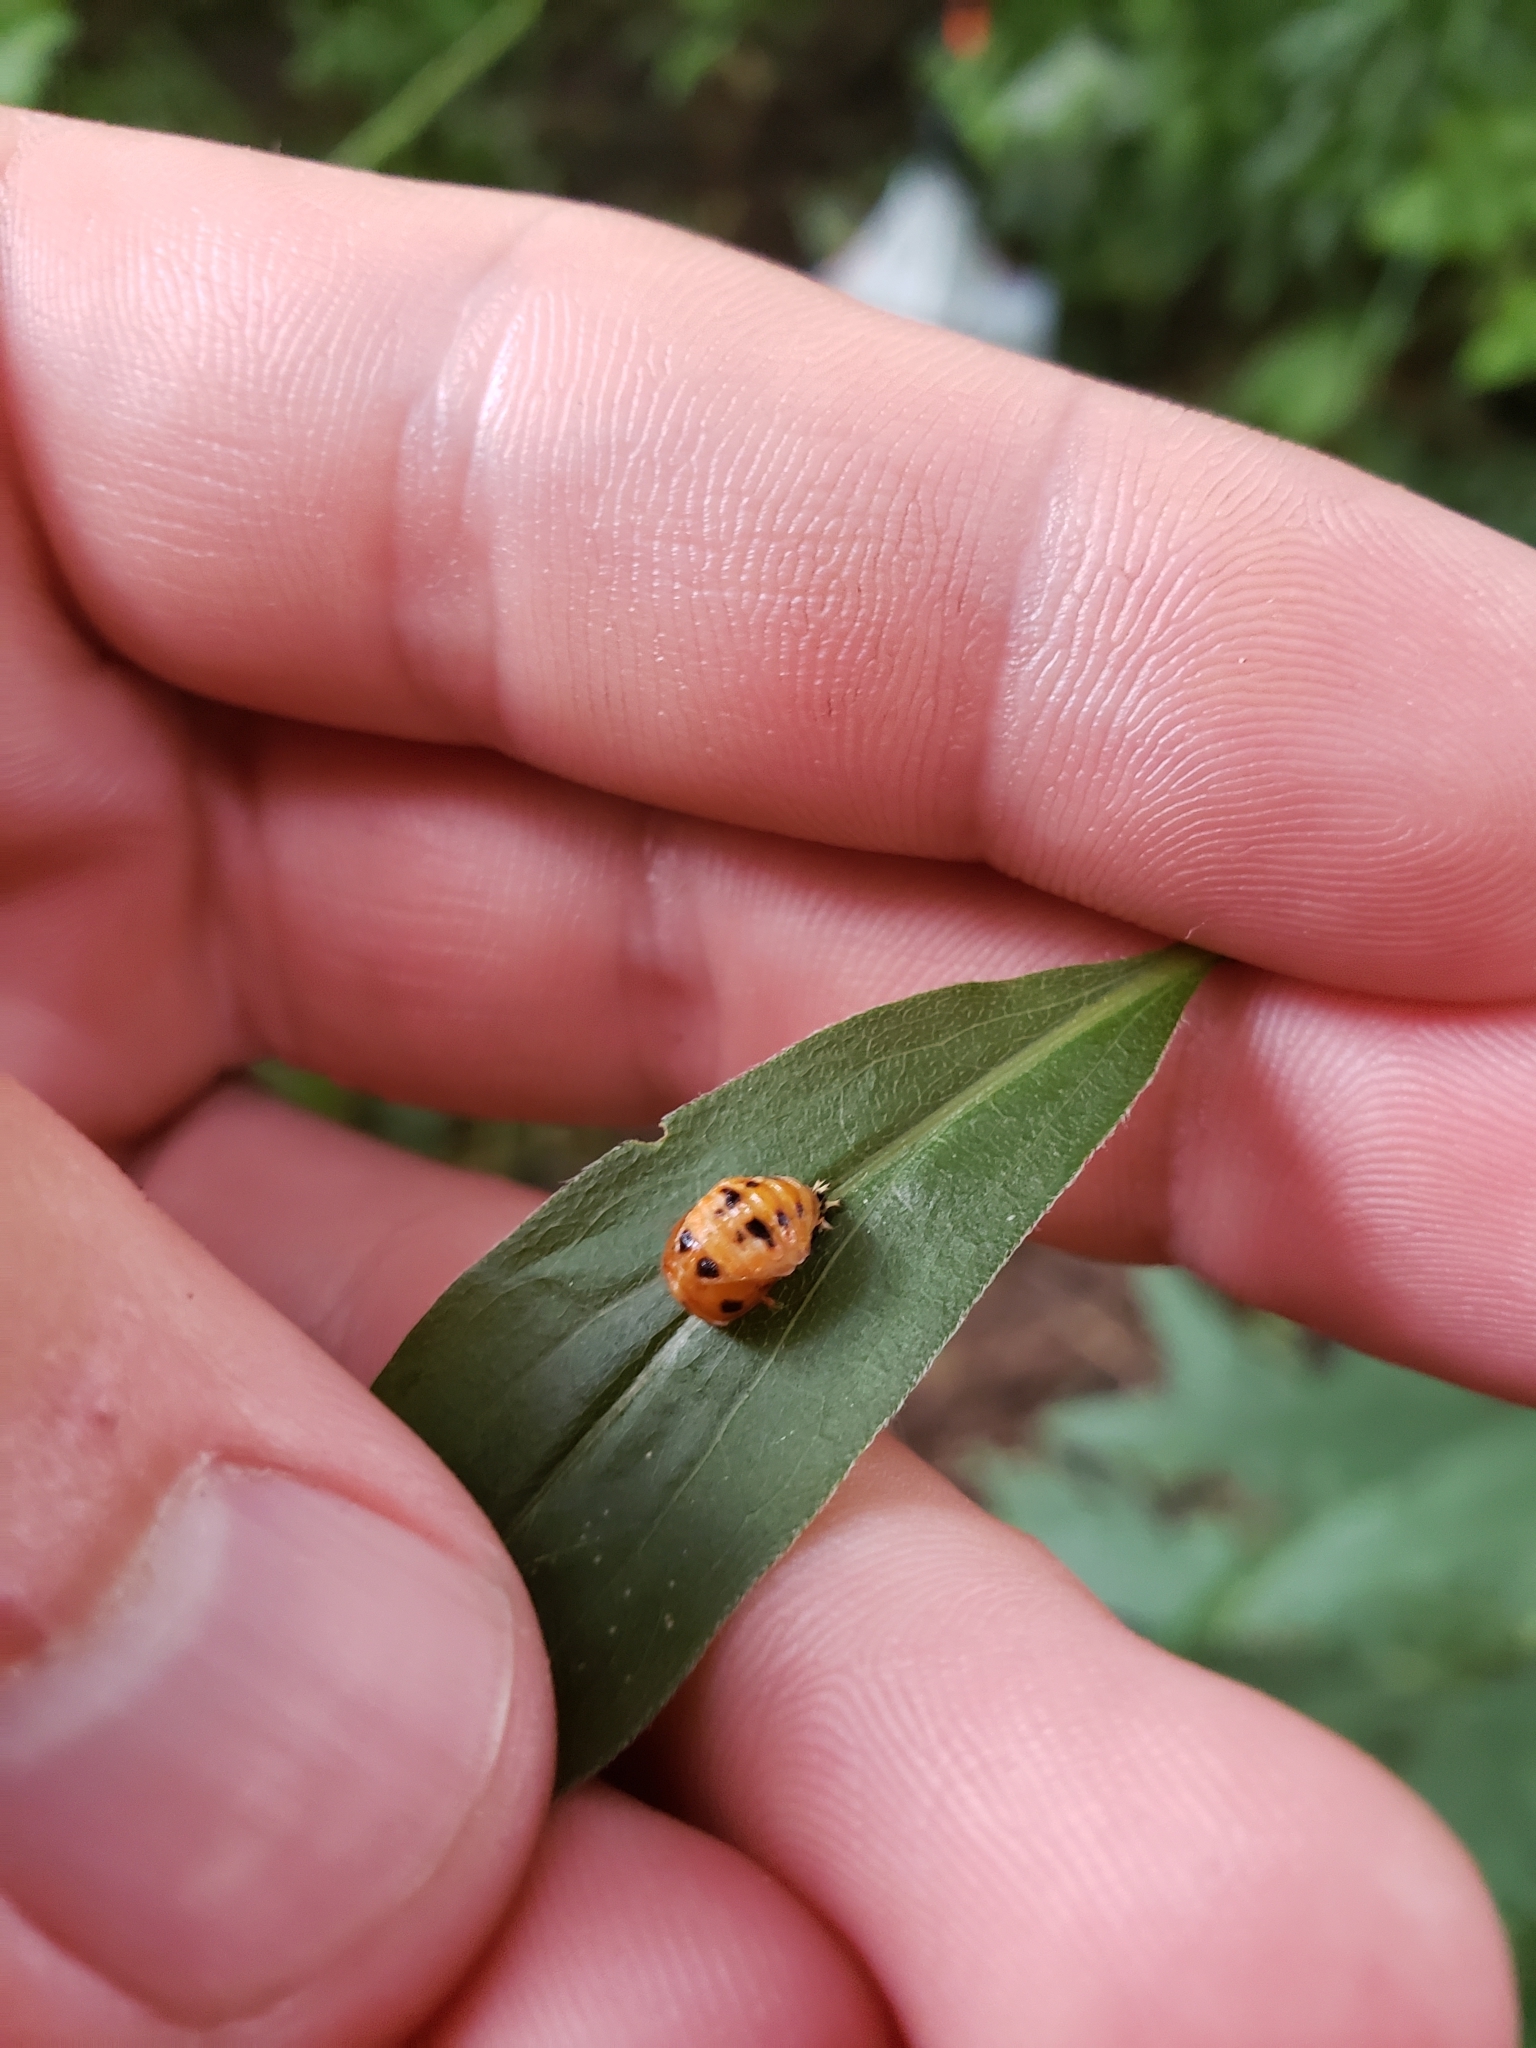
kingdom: Animalia
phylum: Arthropoda
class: Insecta
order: Coleoptera
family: Coccinellidae
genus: Harmonia
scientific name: Harmonia axyridis
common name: Harlequin ladybird
